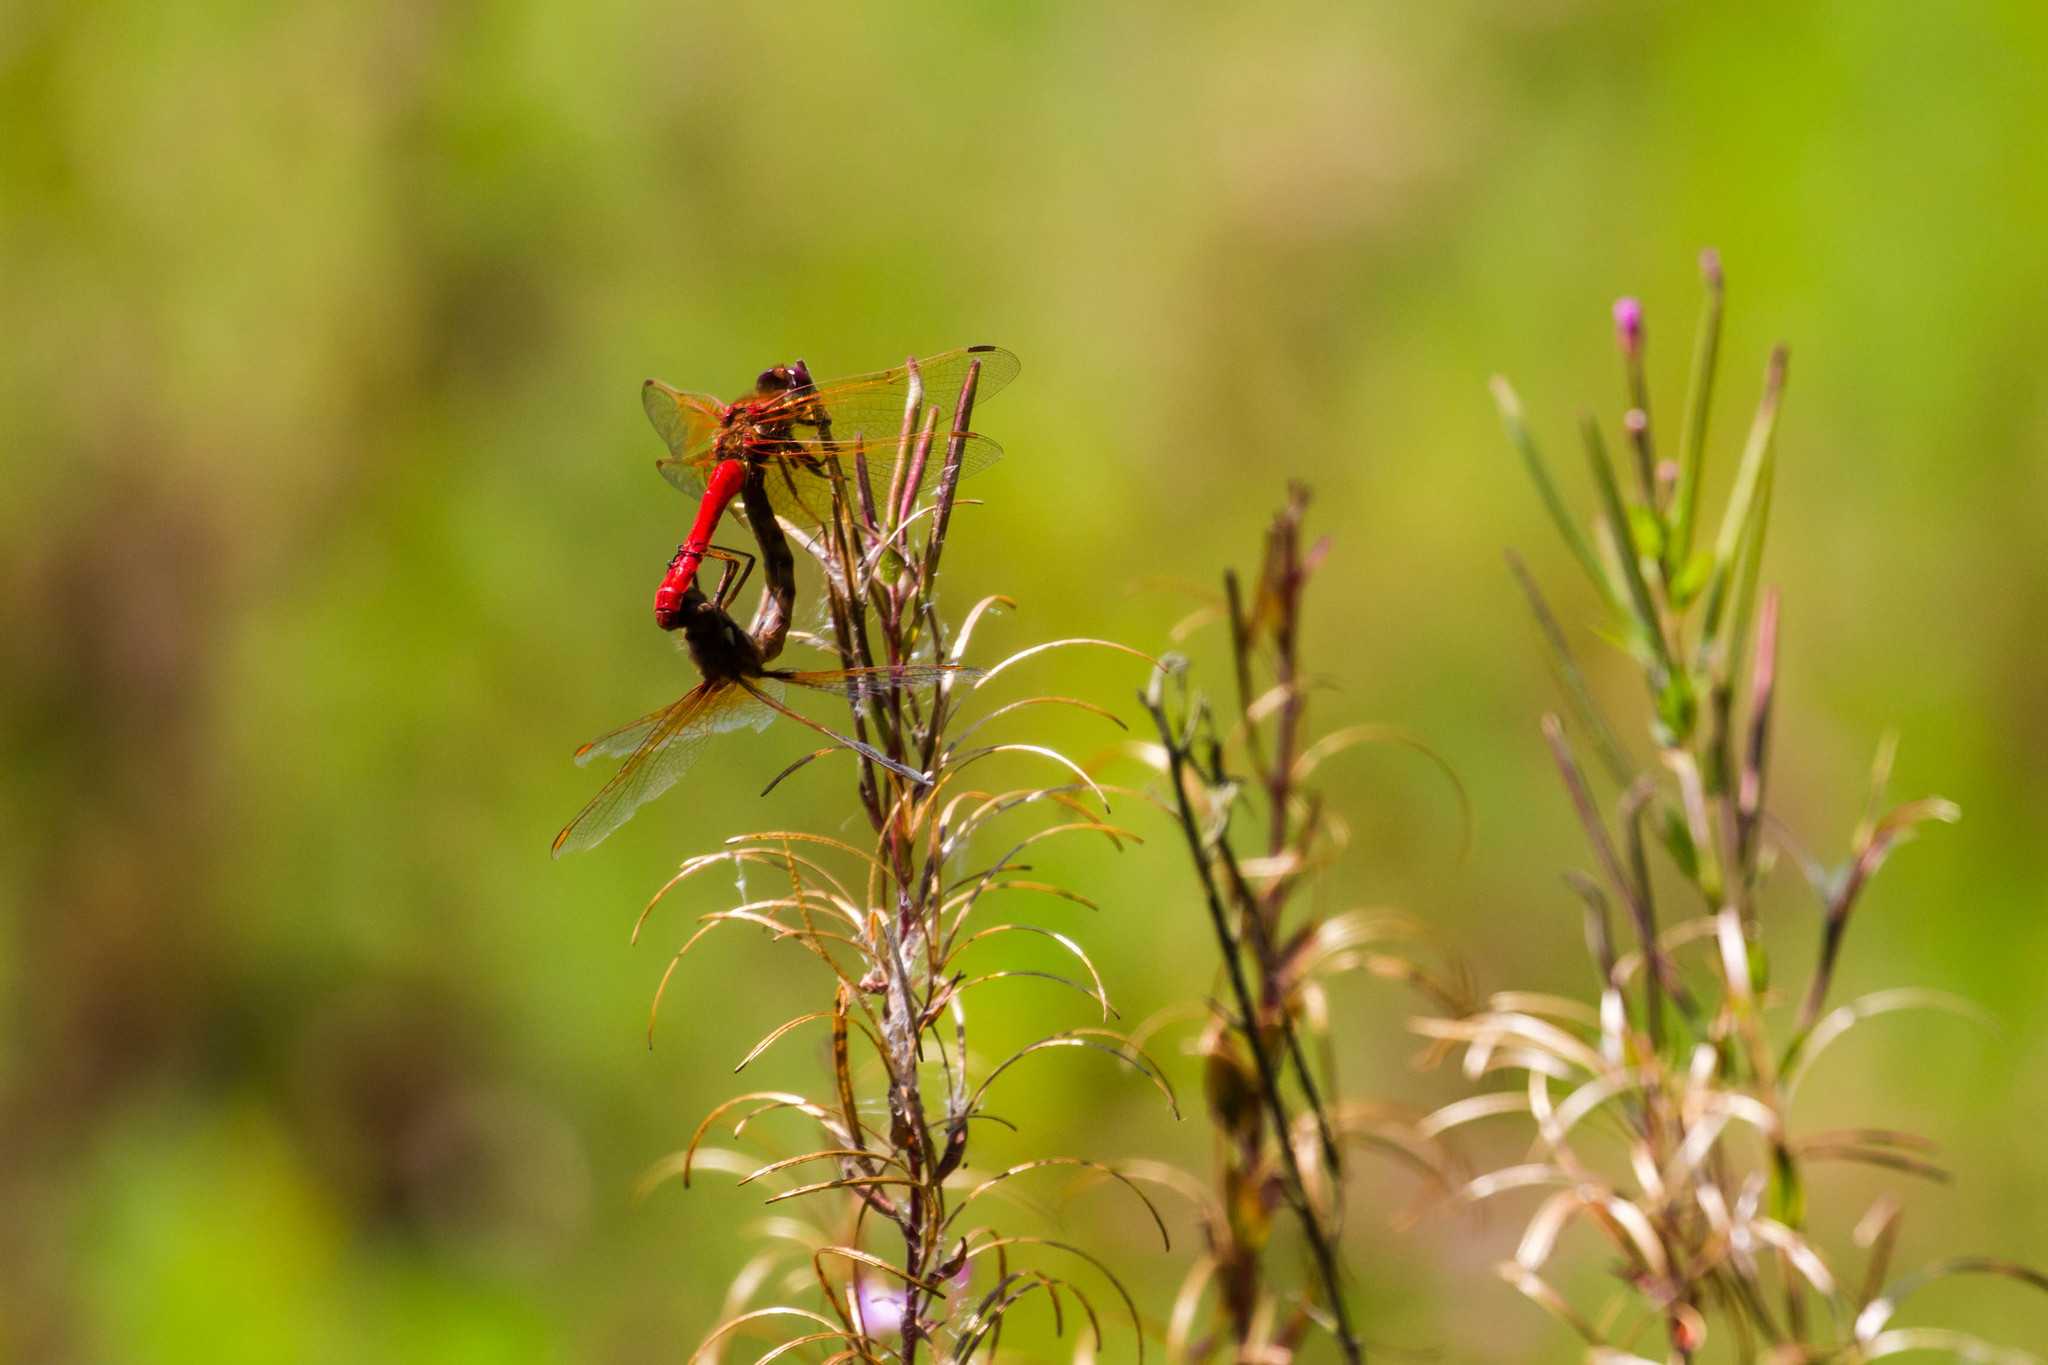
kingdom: Animalia
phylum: Arthropoda
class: Insecta
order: Odonata
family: Libellulidae
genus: Sympetrum
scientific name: Sympetrum illotum
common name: Cardinal meadowhawk
